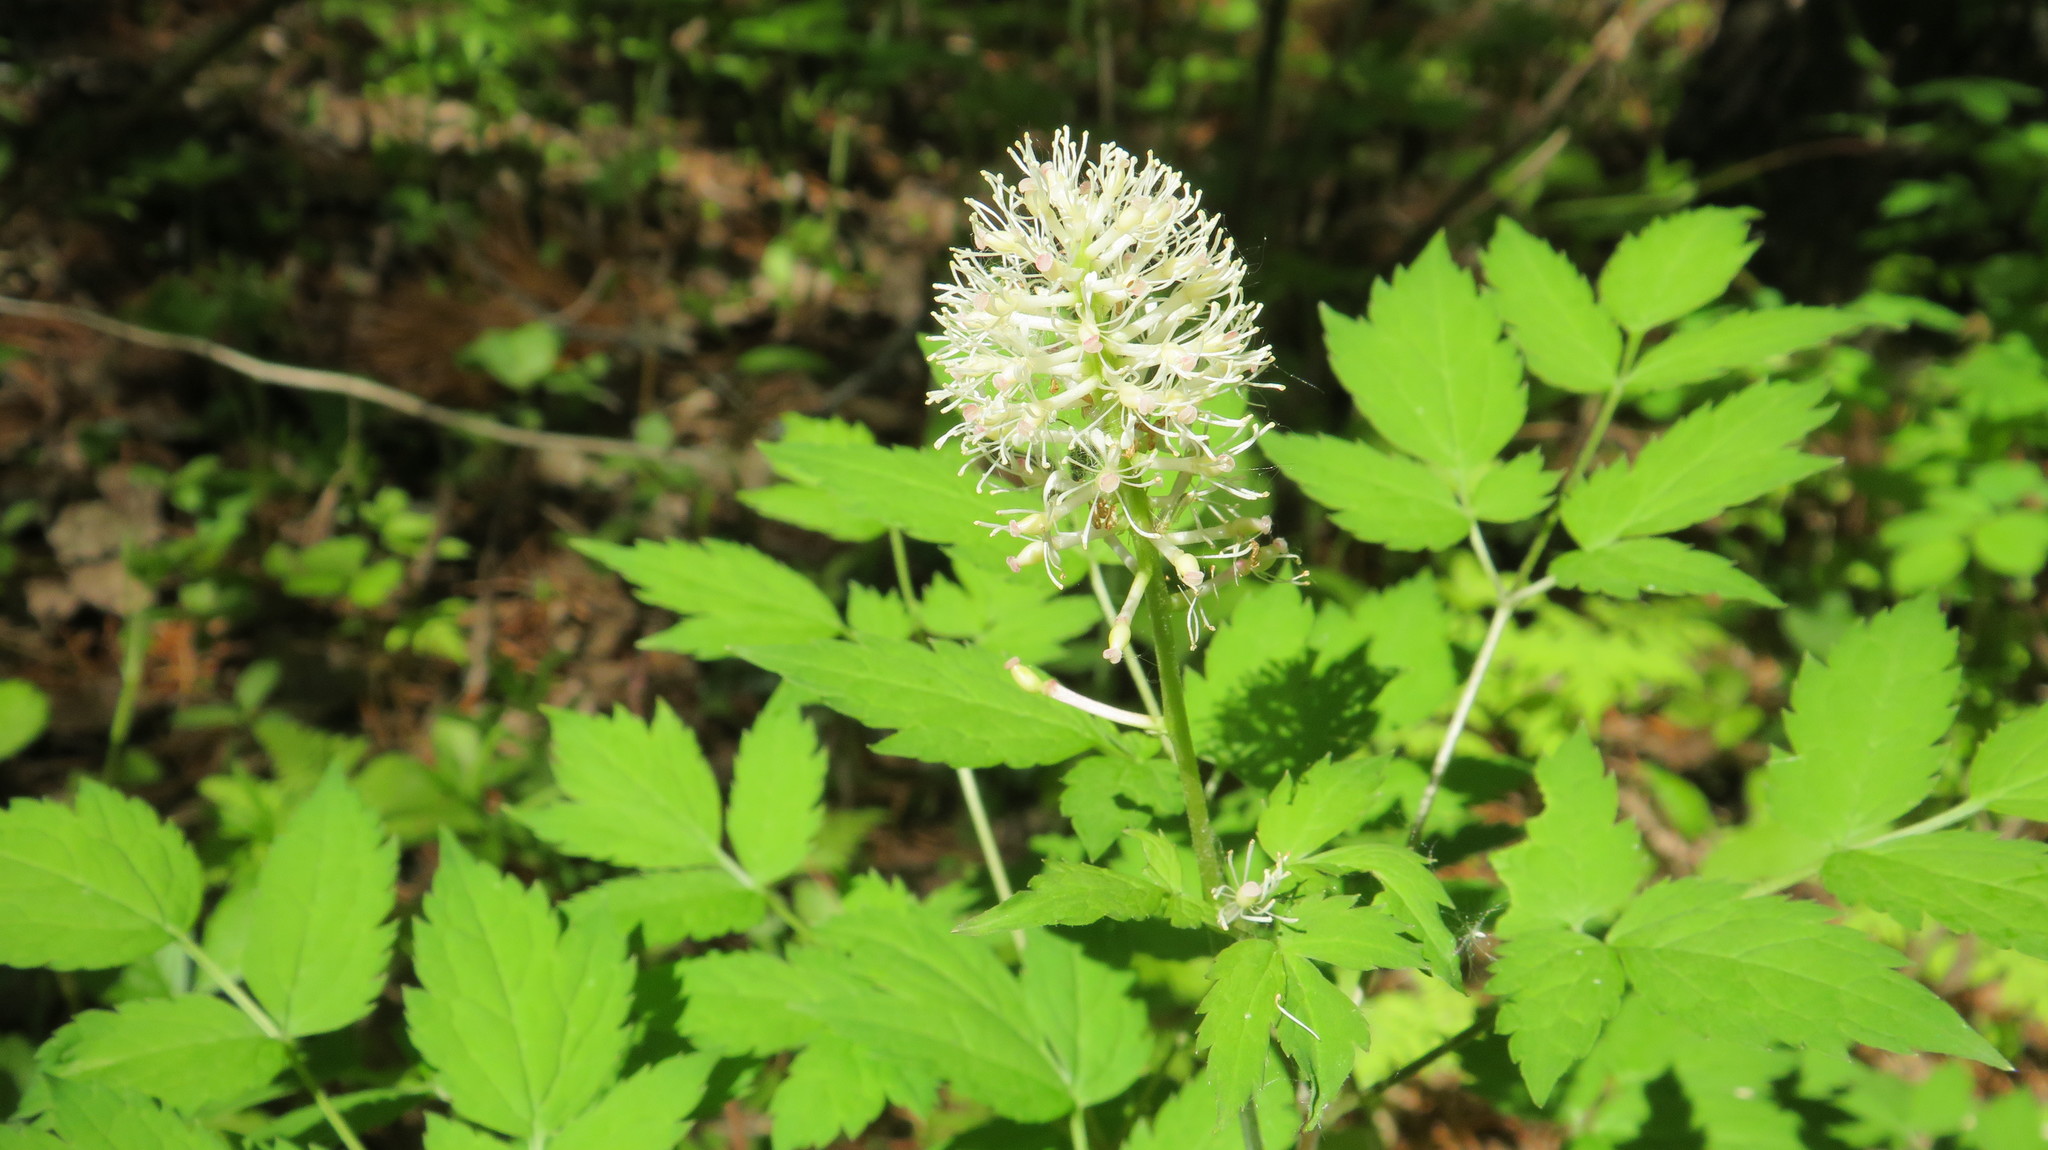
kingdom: Plantae
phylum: Tracheophyta
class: Magnoliopsida
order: Ranunculales
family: Ranunculaceae
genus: Actaea
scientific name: Actaea erythrocarpa
